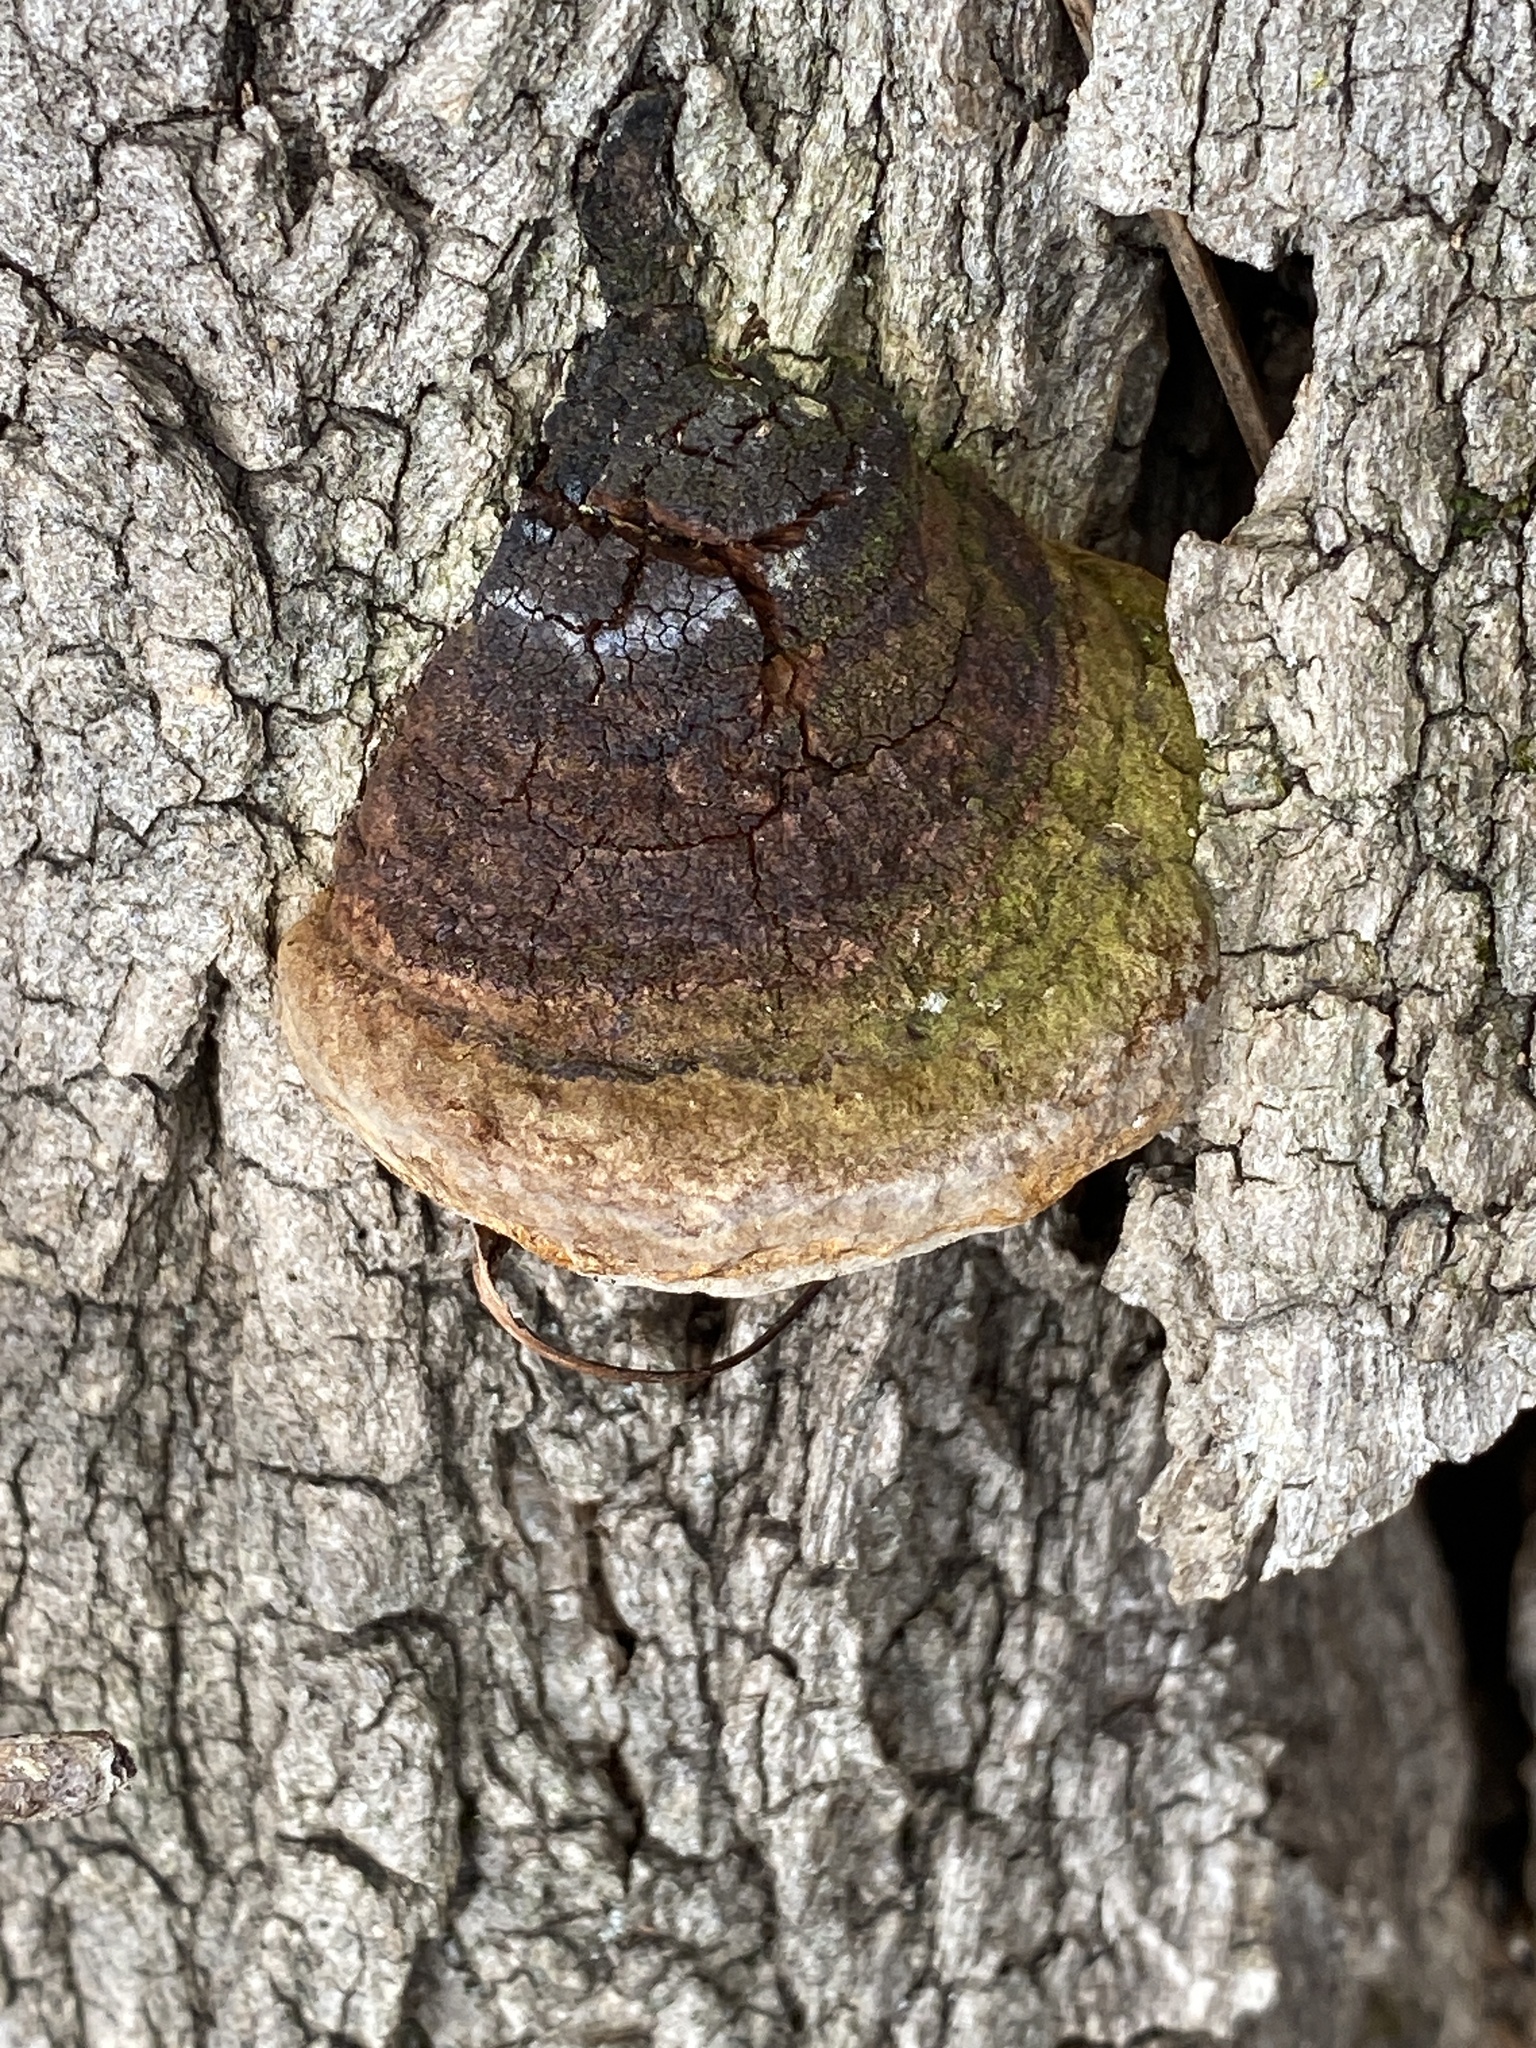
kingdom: Fungi
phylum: Basidiomycota
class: Agaricomycetes
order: Hymenochaetales
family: Hymenochaetaceae
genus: Phellinus
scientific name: Phellinus robiniae
